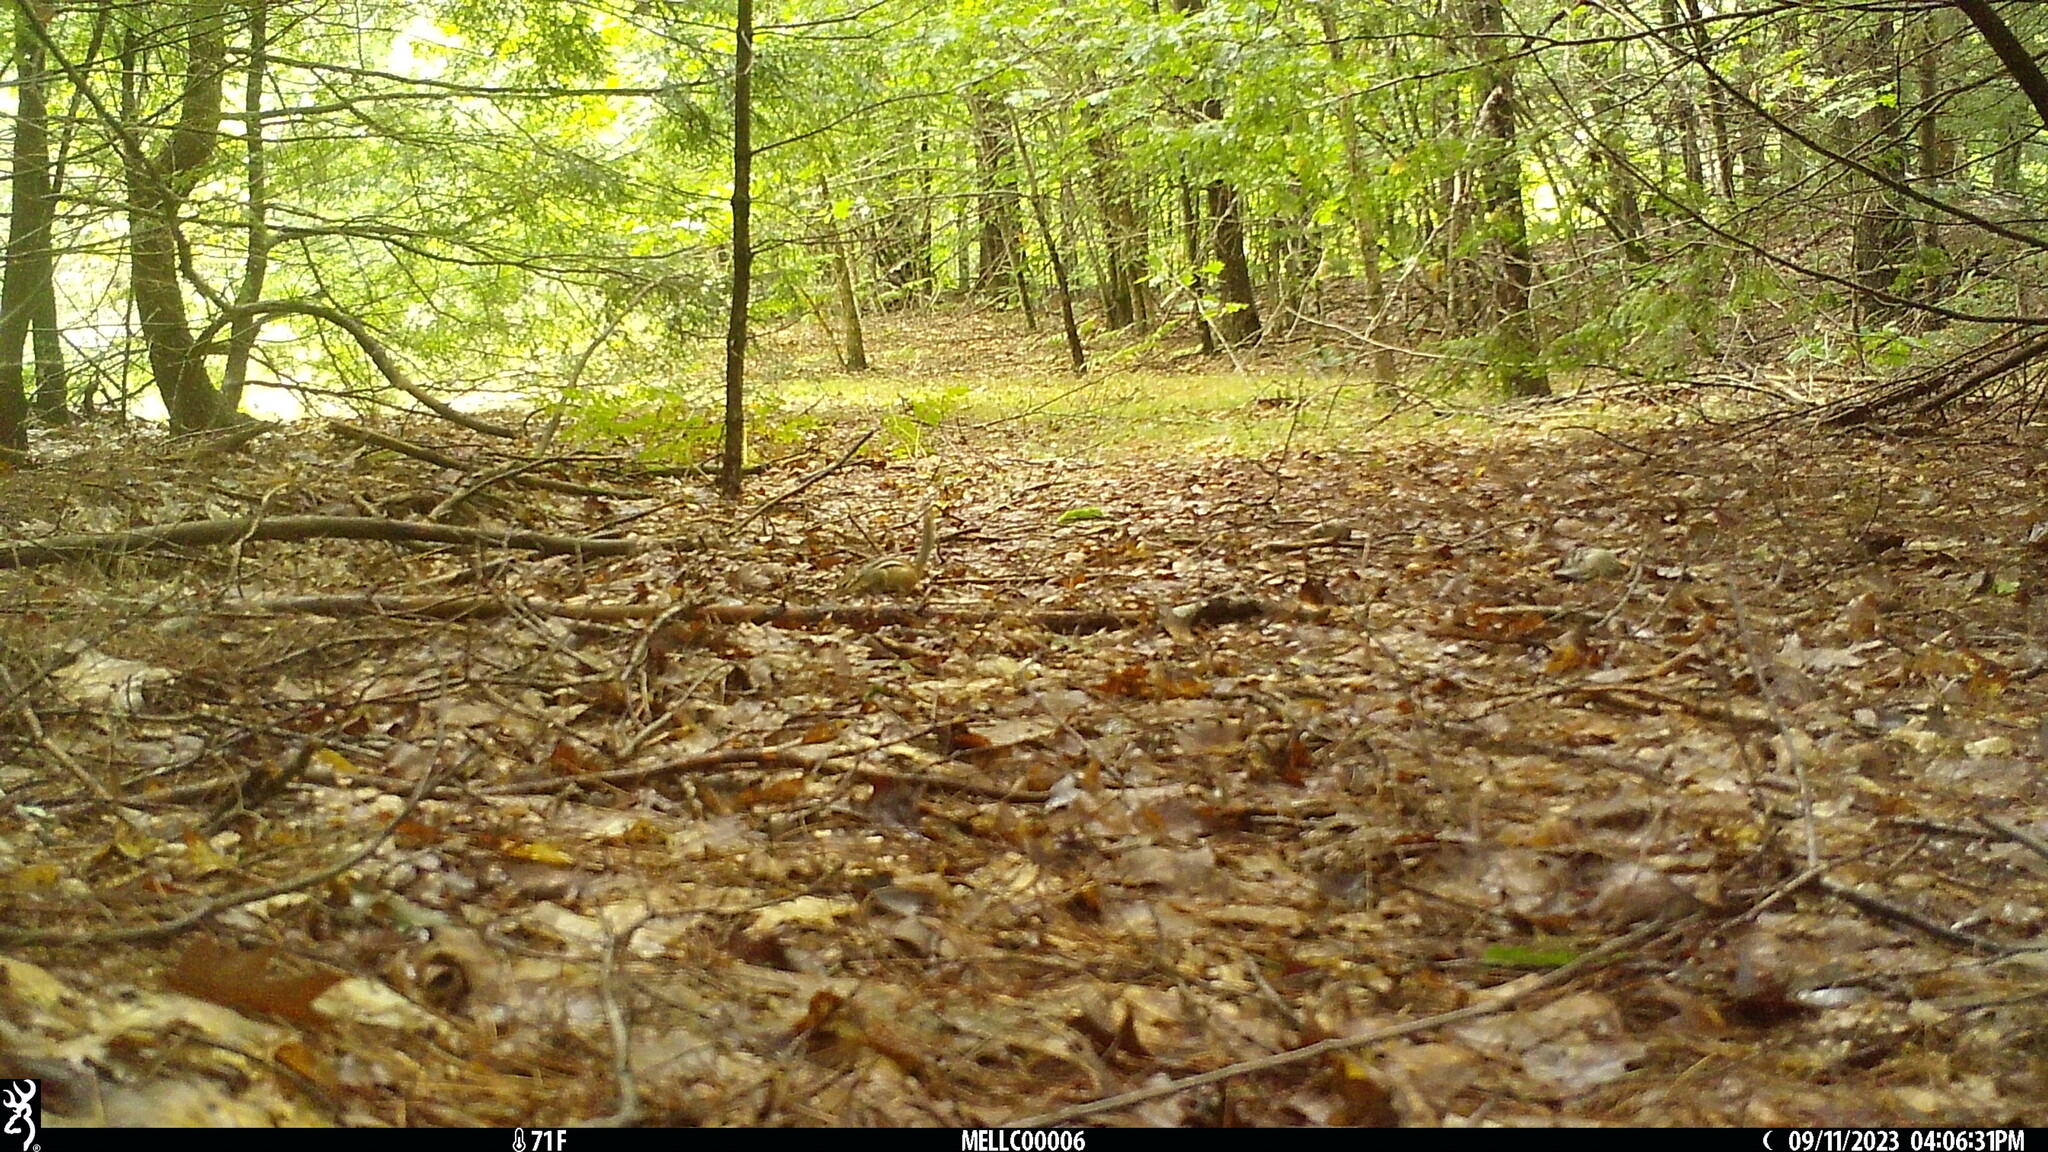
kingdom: Animalia
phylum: Chordata
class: Mammalia
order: Rodentia
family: Sciuridae
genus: Tamias
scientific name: Tamias striatus
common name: Eastern chipmunk
